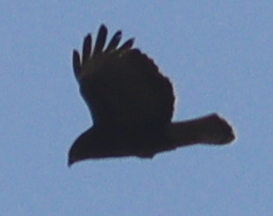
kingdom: Animalia
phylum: Chordata
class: Aves
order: Accipitriformes
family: Accipitridae
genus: Buteo
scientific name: Buteo buteo
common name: Common buzzard
